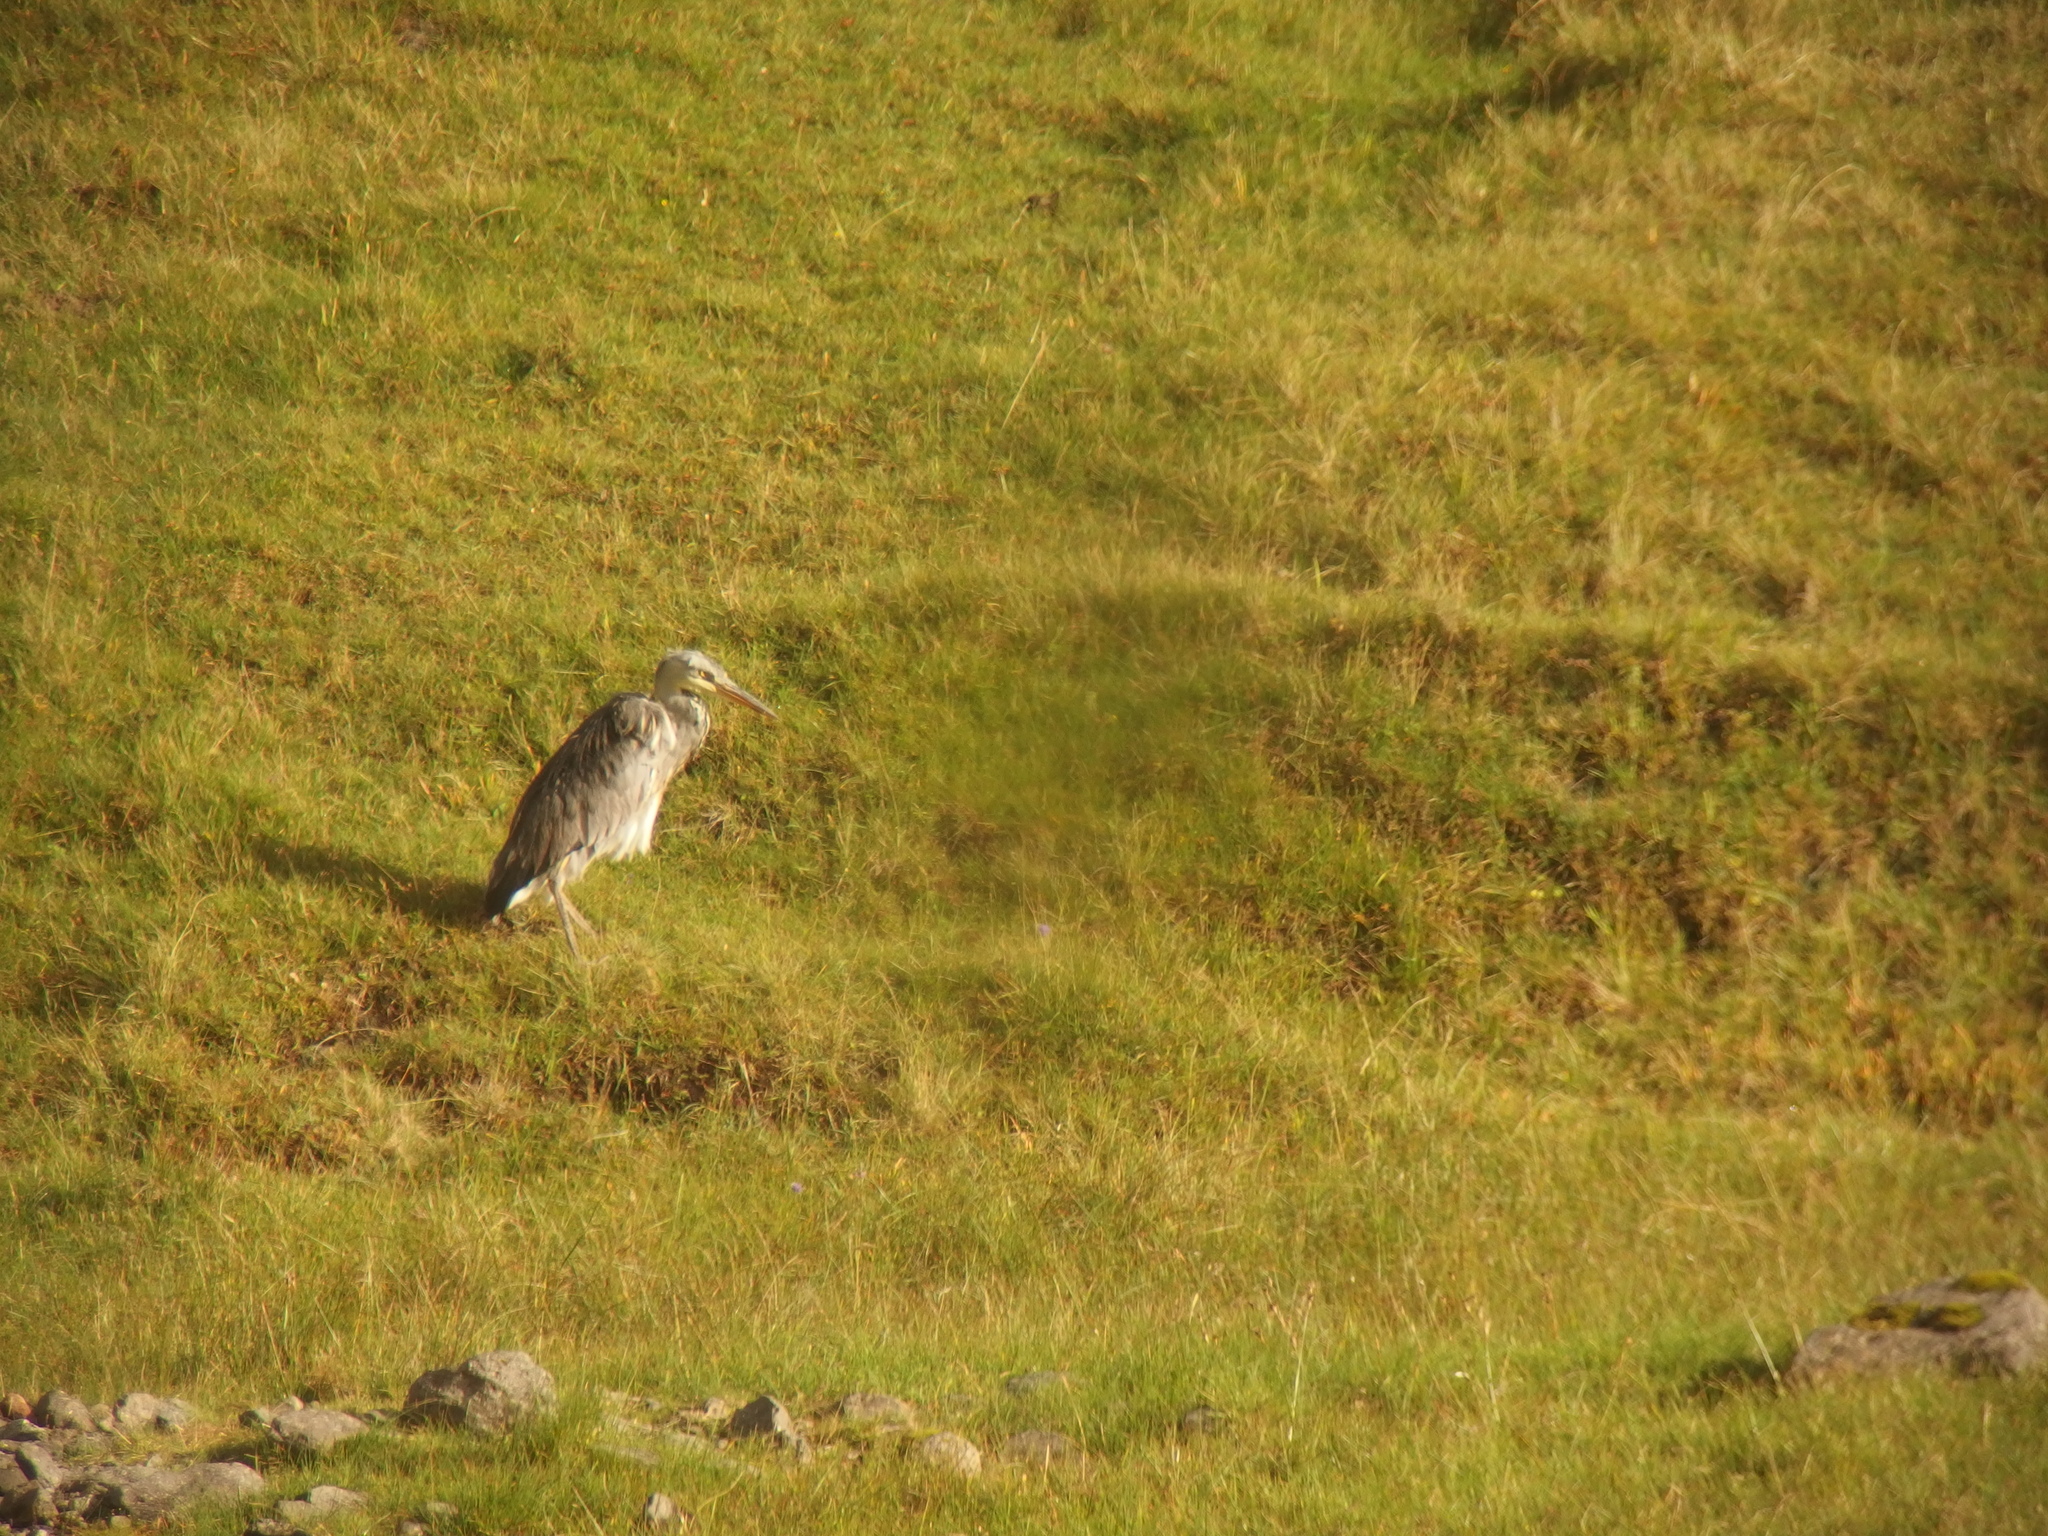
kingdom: Animalia
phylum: Chordata
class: Aves
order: Pelecaniformes
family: Ardeidae
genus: Ardea
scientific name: Ardea cinerea
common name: Grey heron
